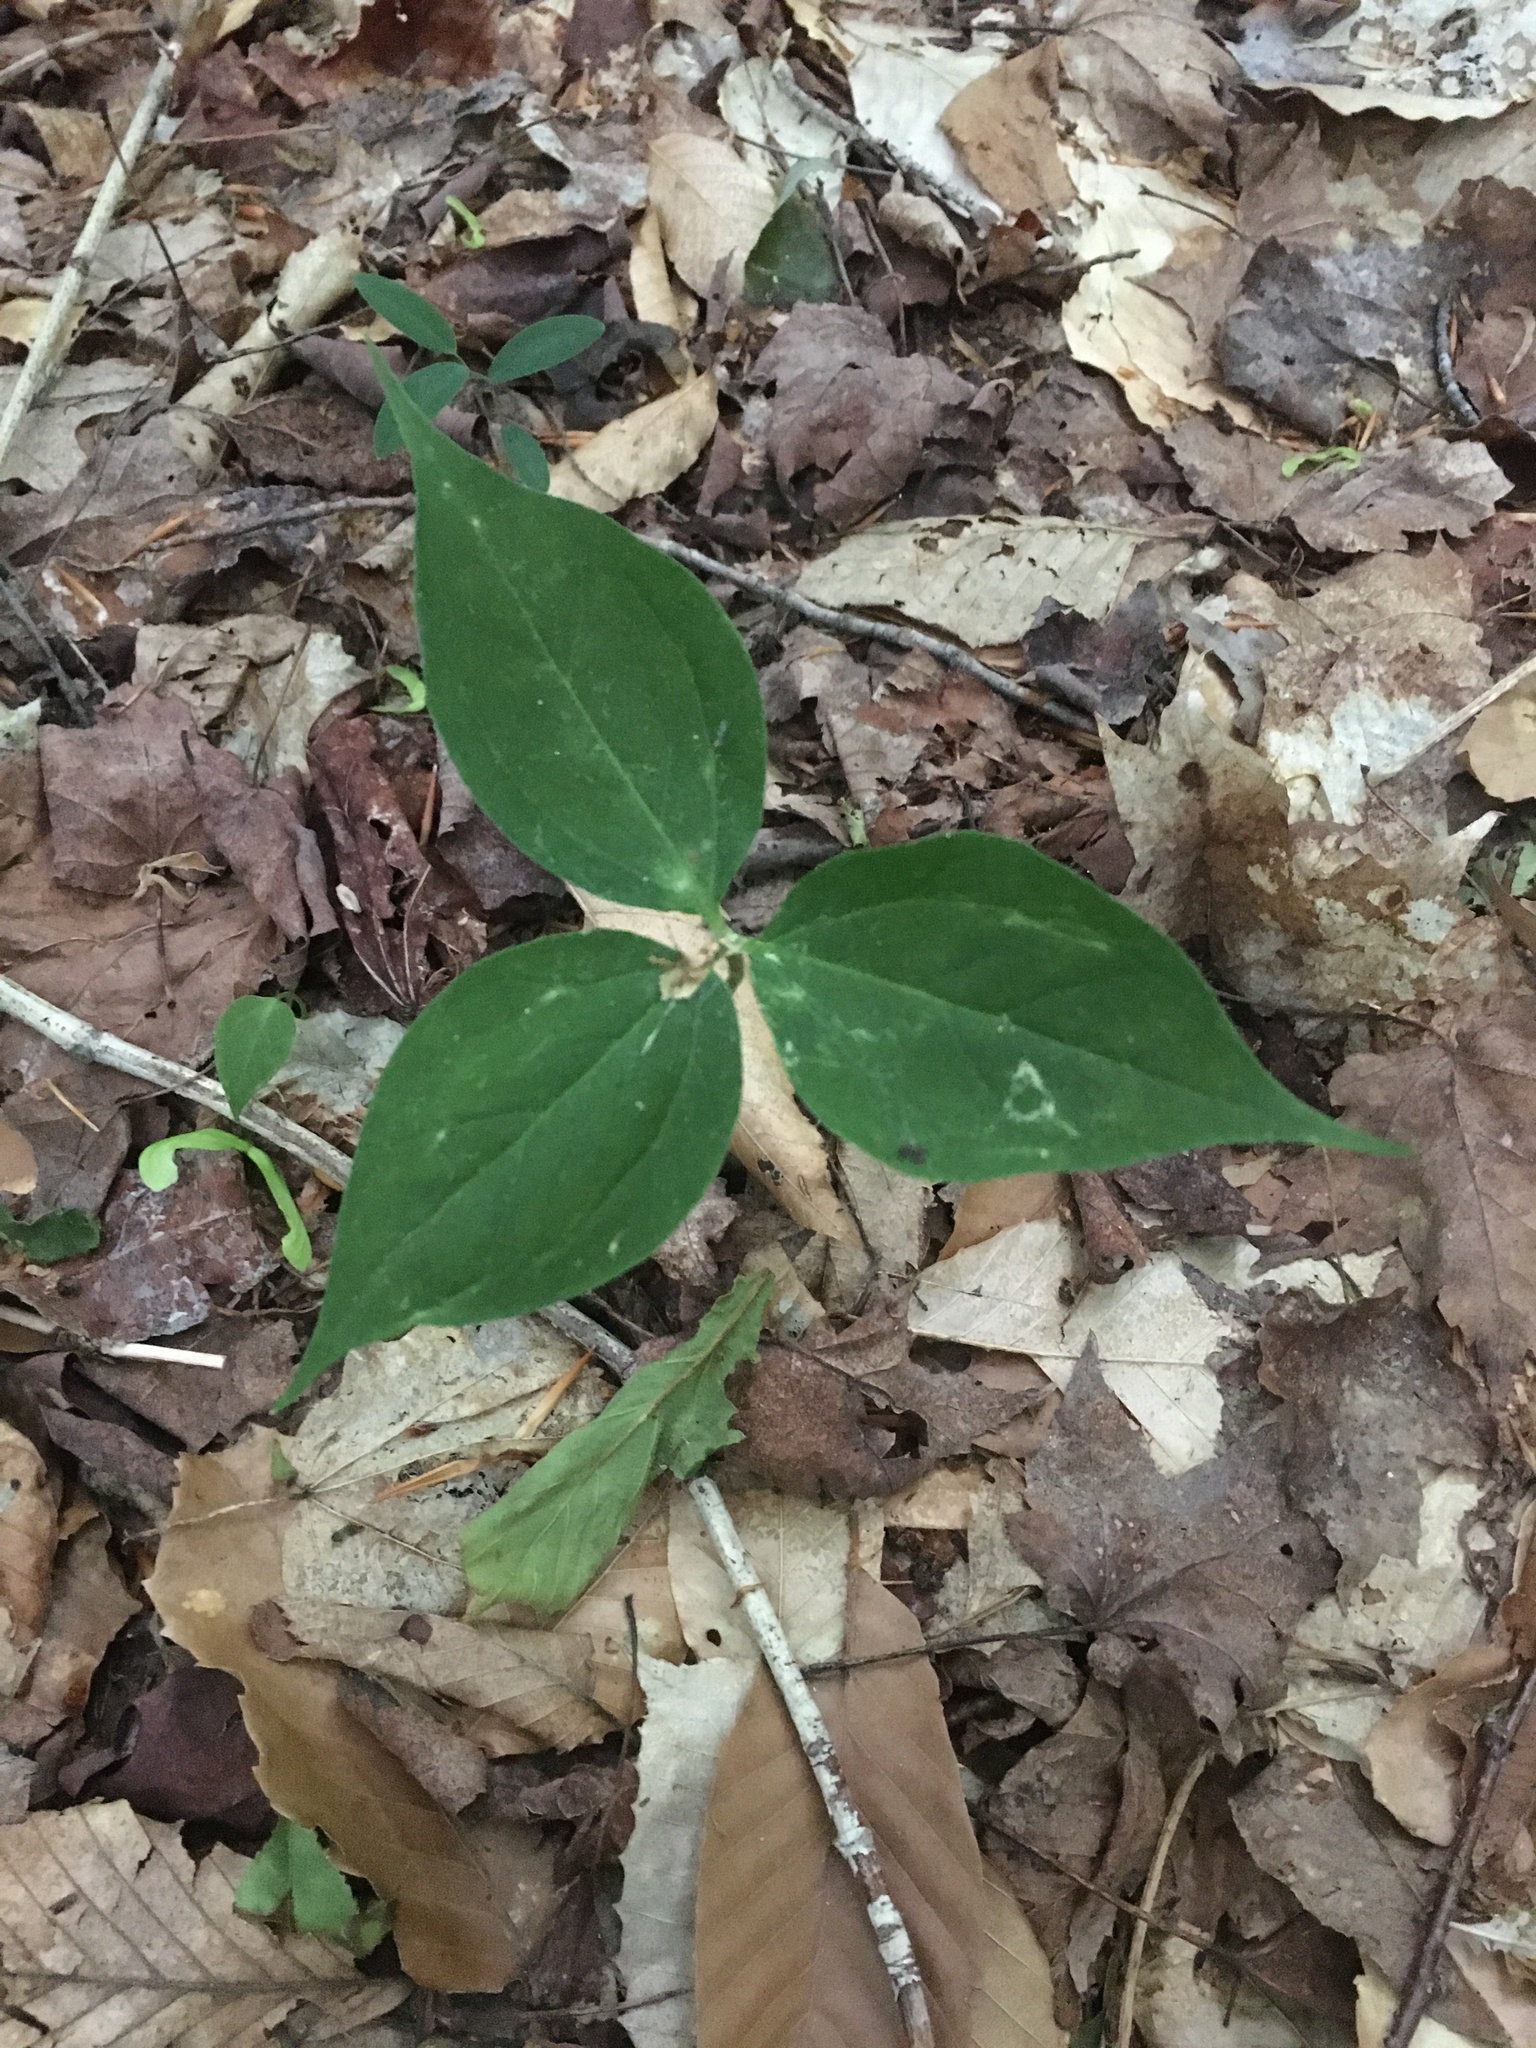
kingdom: Plantae
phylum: Tracheophyta
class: Liliopsida
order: Liliales
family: Melanthiaceae
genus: Trillium
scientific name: Trillium undulatum
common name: Paint trillium
